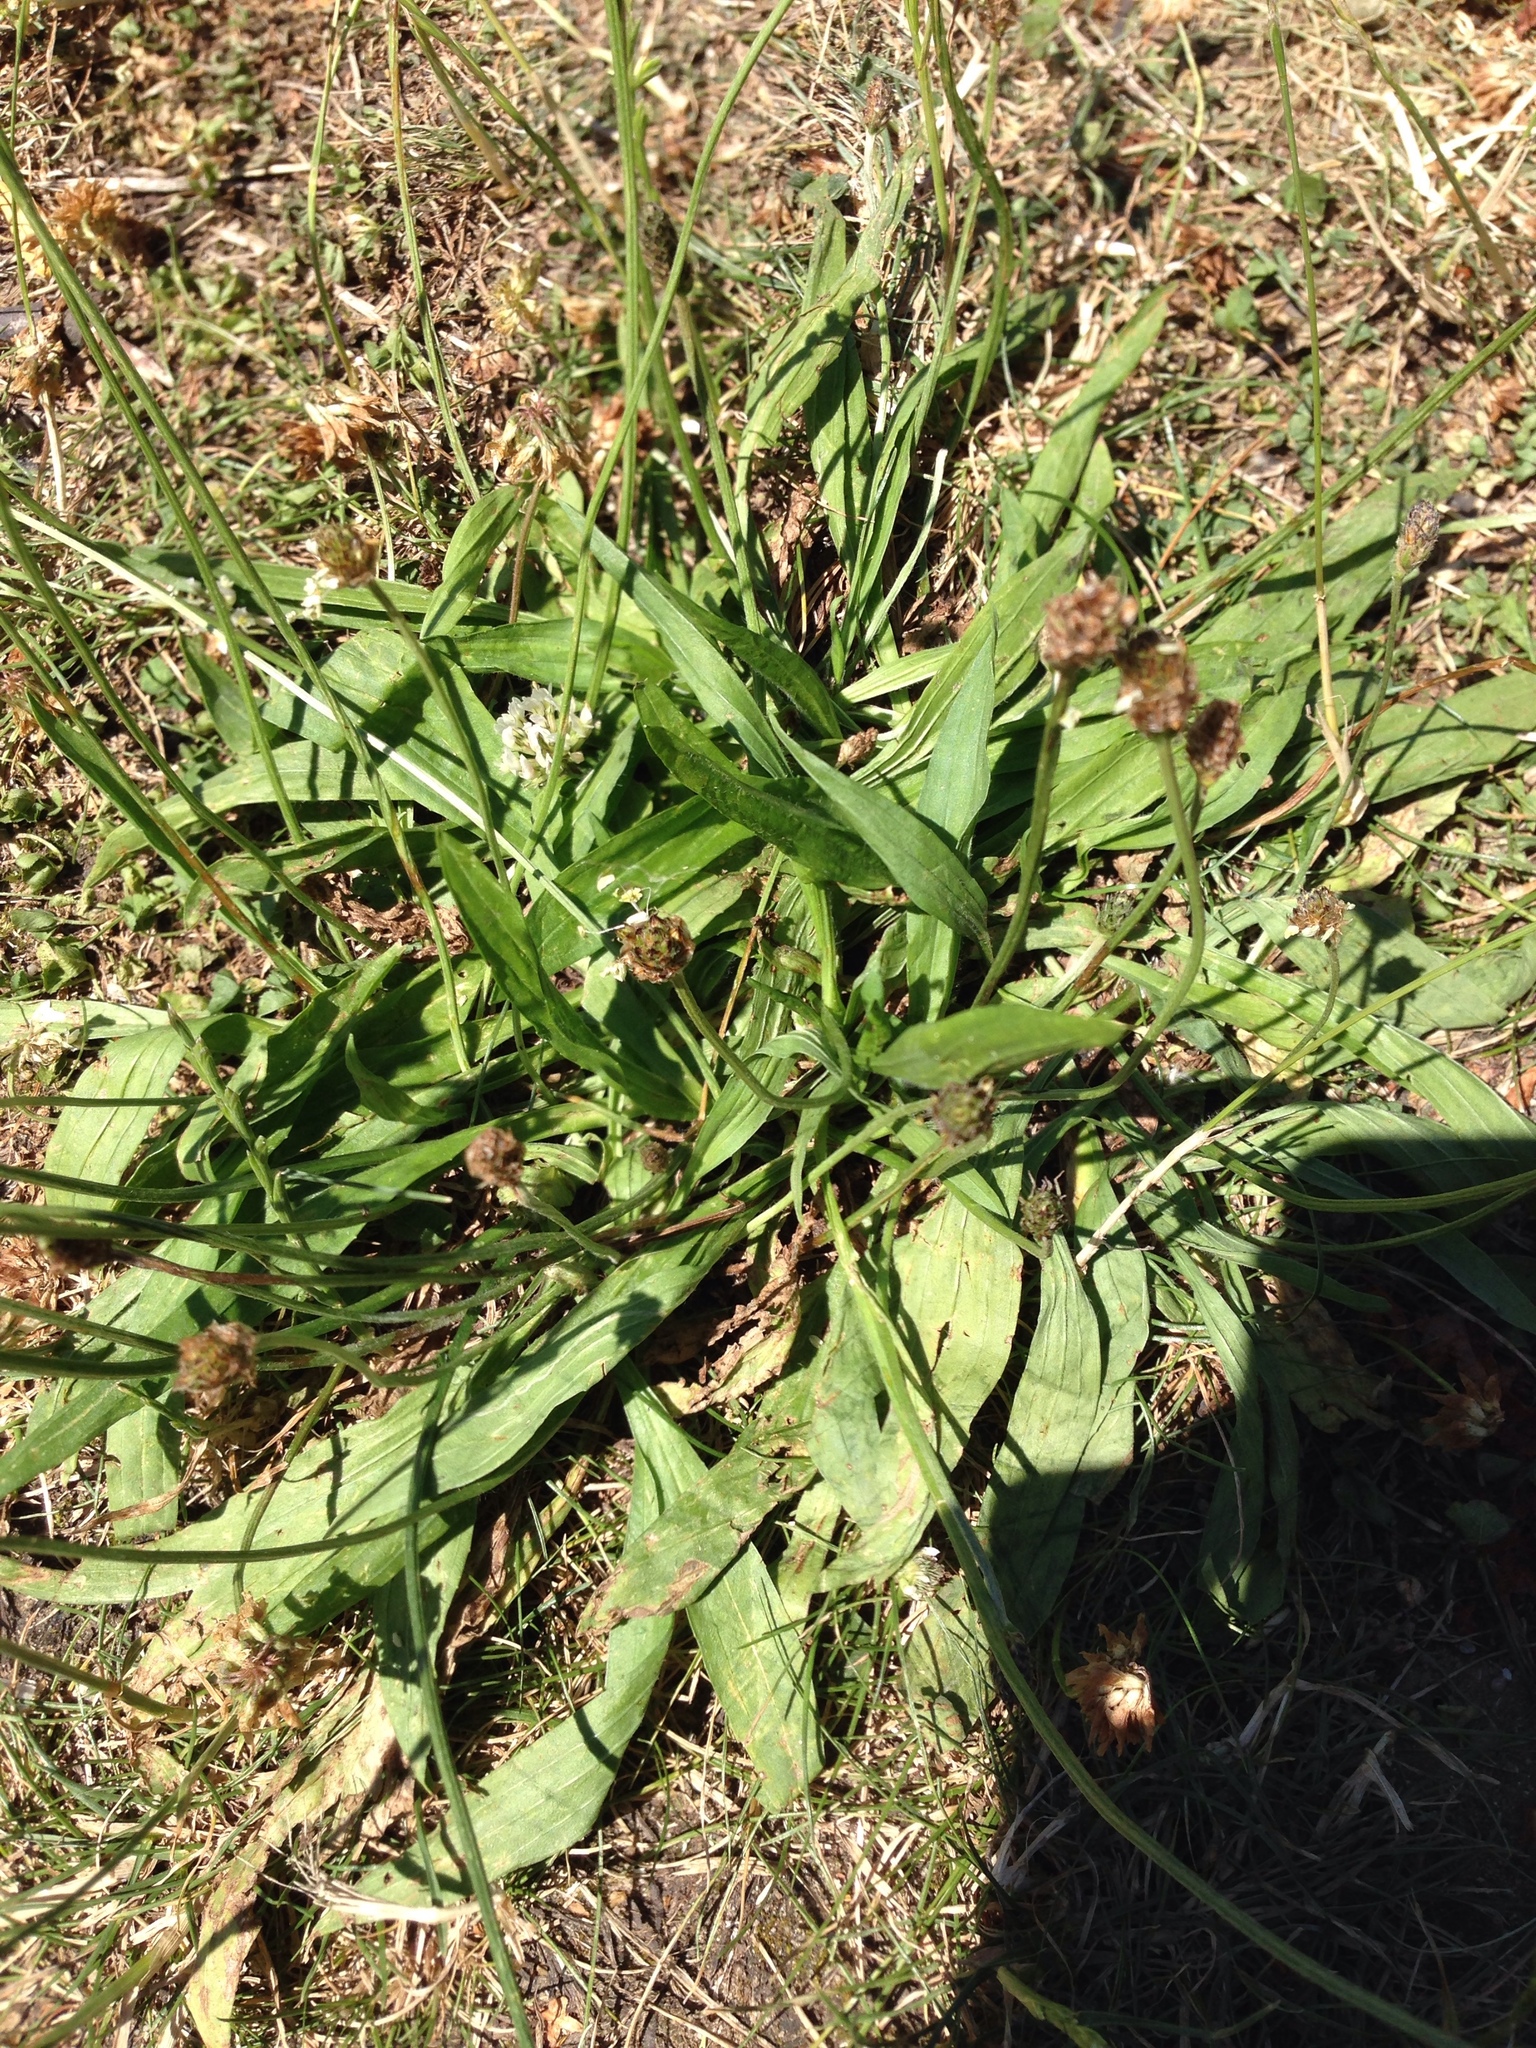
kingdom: Plantae
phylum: Tracheophyta
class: Magnoliopsida
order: Lamiales
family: Plantaginaceae
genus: Plantago
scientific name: Plantago lanceolata
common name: Ribwort plantain
